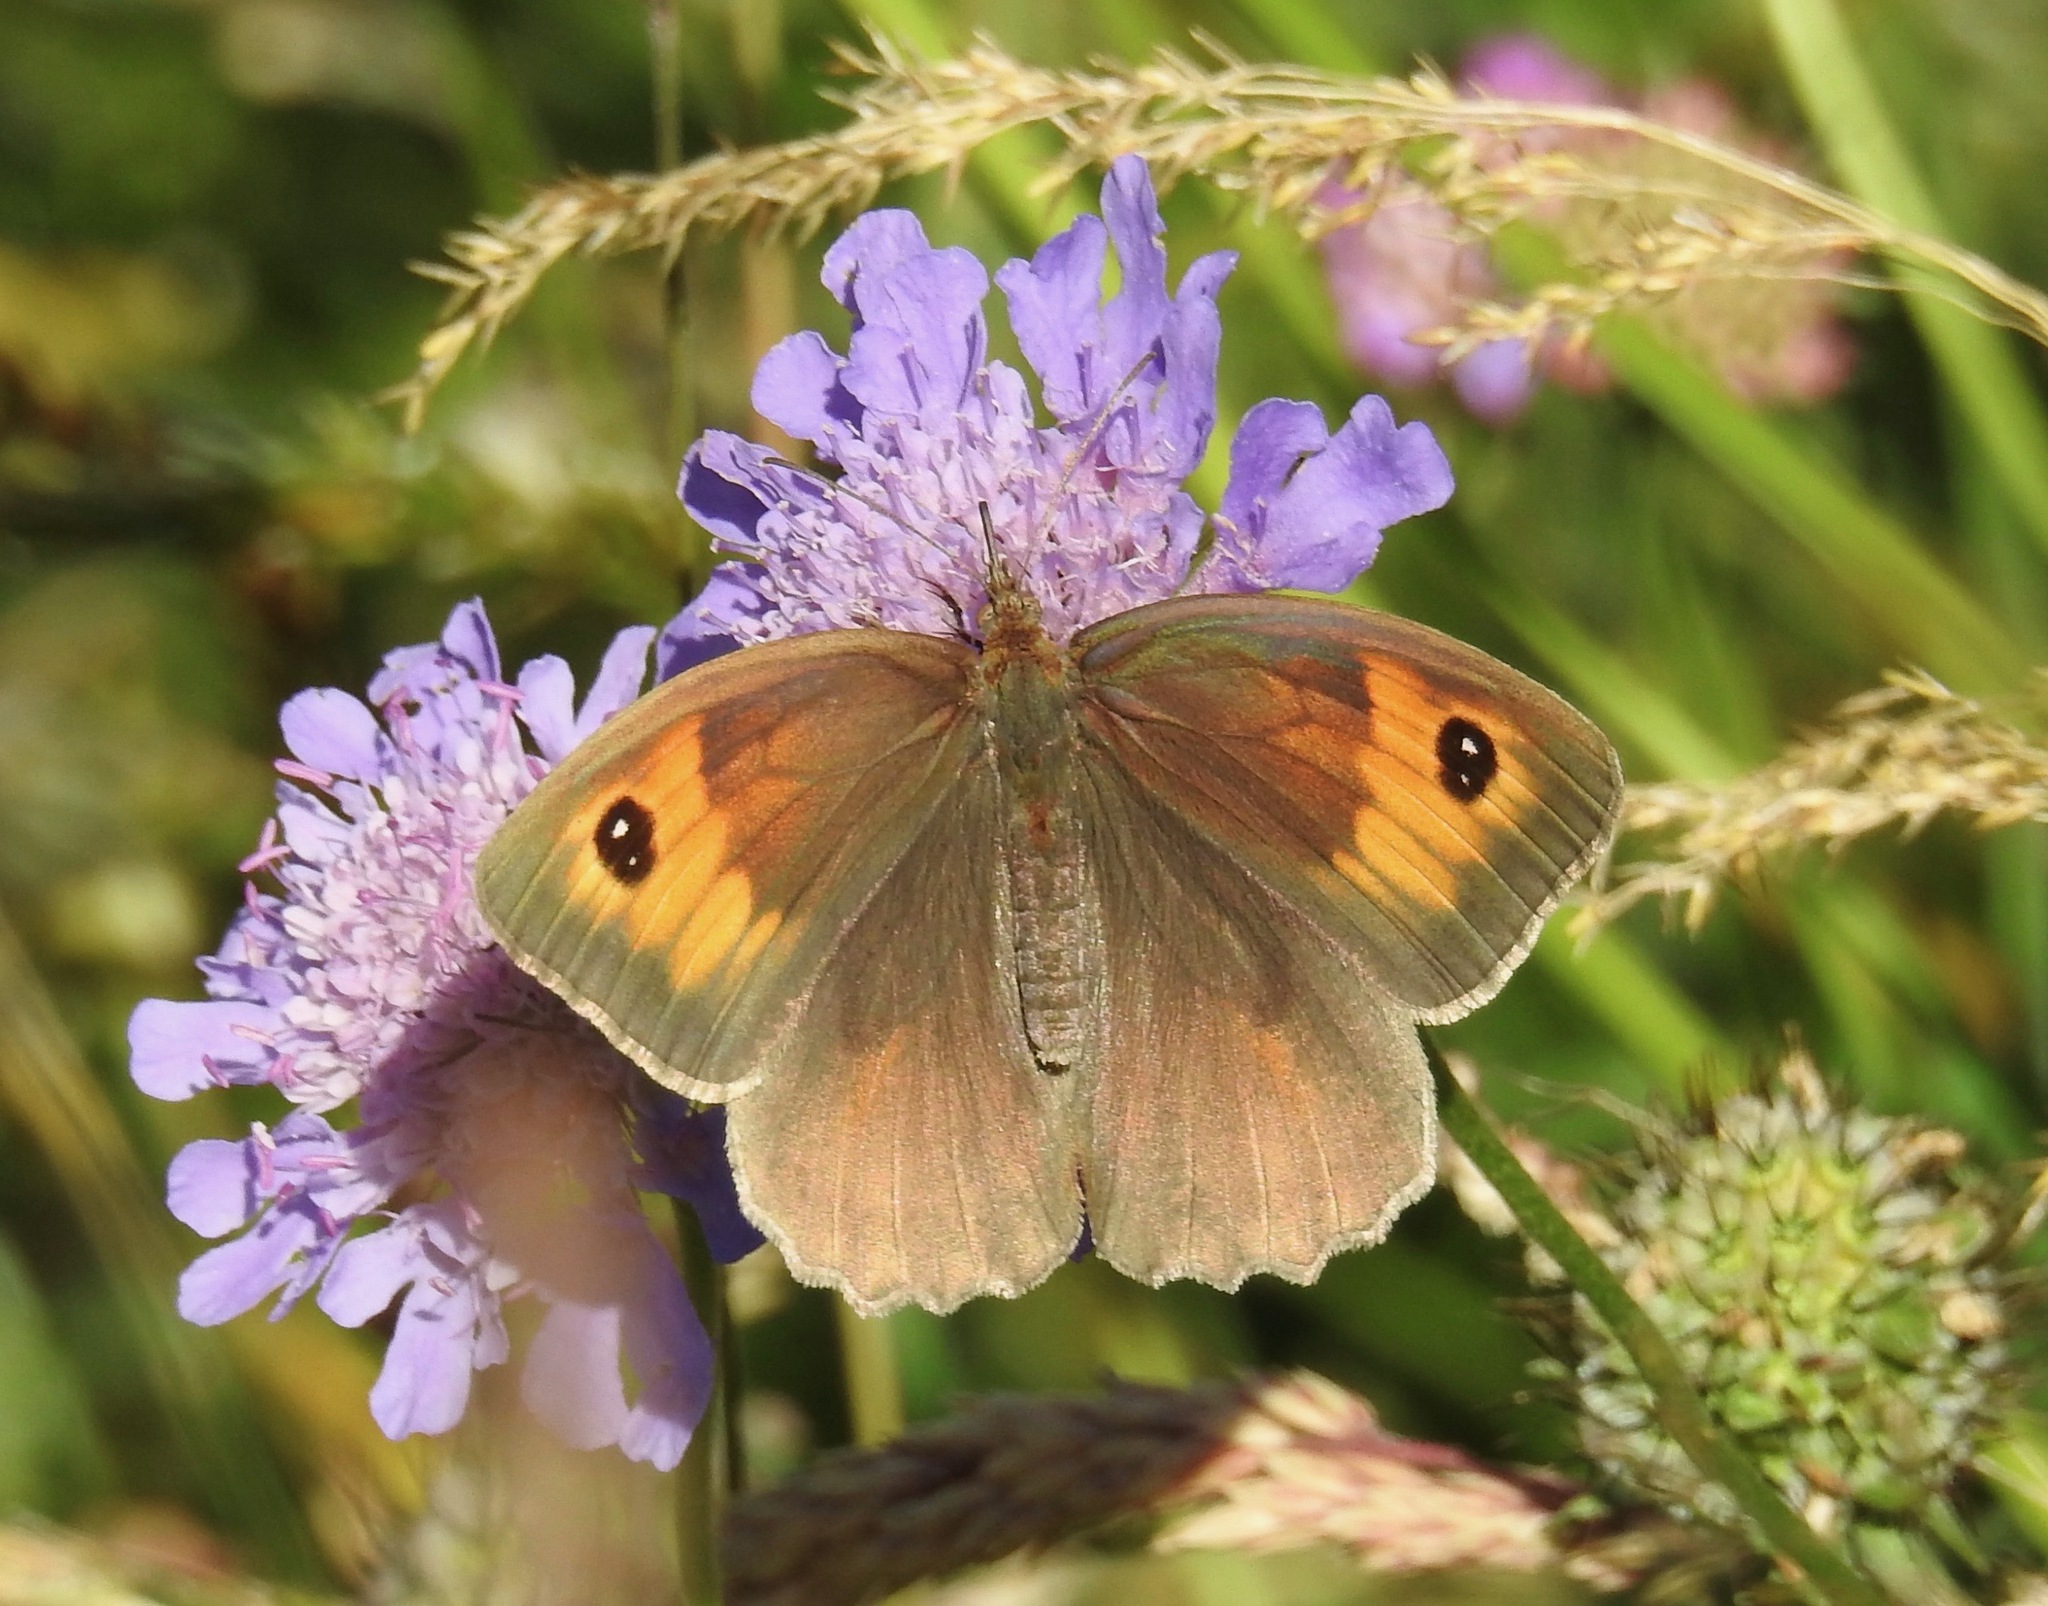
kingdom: Animalia
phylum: Arthropoda
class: Insecta
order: Lepidoptera
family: Nymphalidae
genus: Maniola
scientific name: Maniola jurtina
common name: Meadow brown
